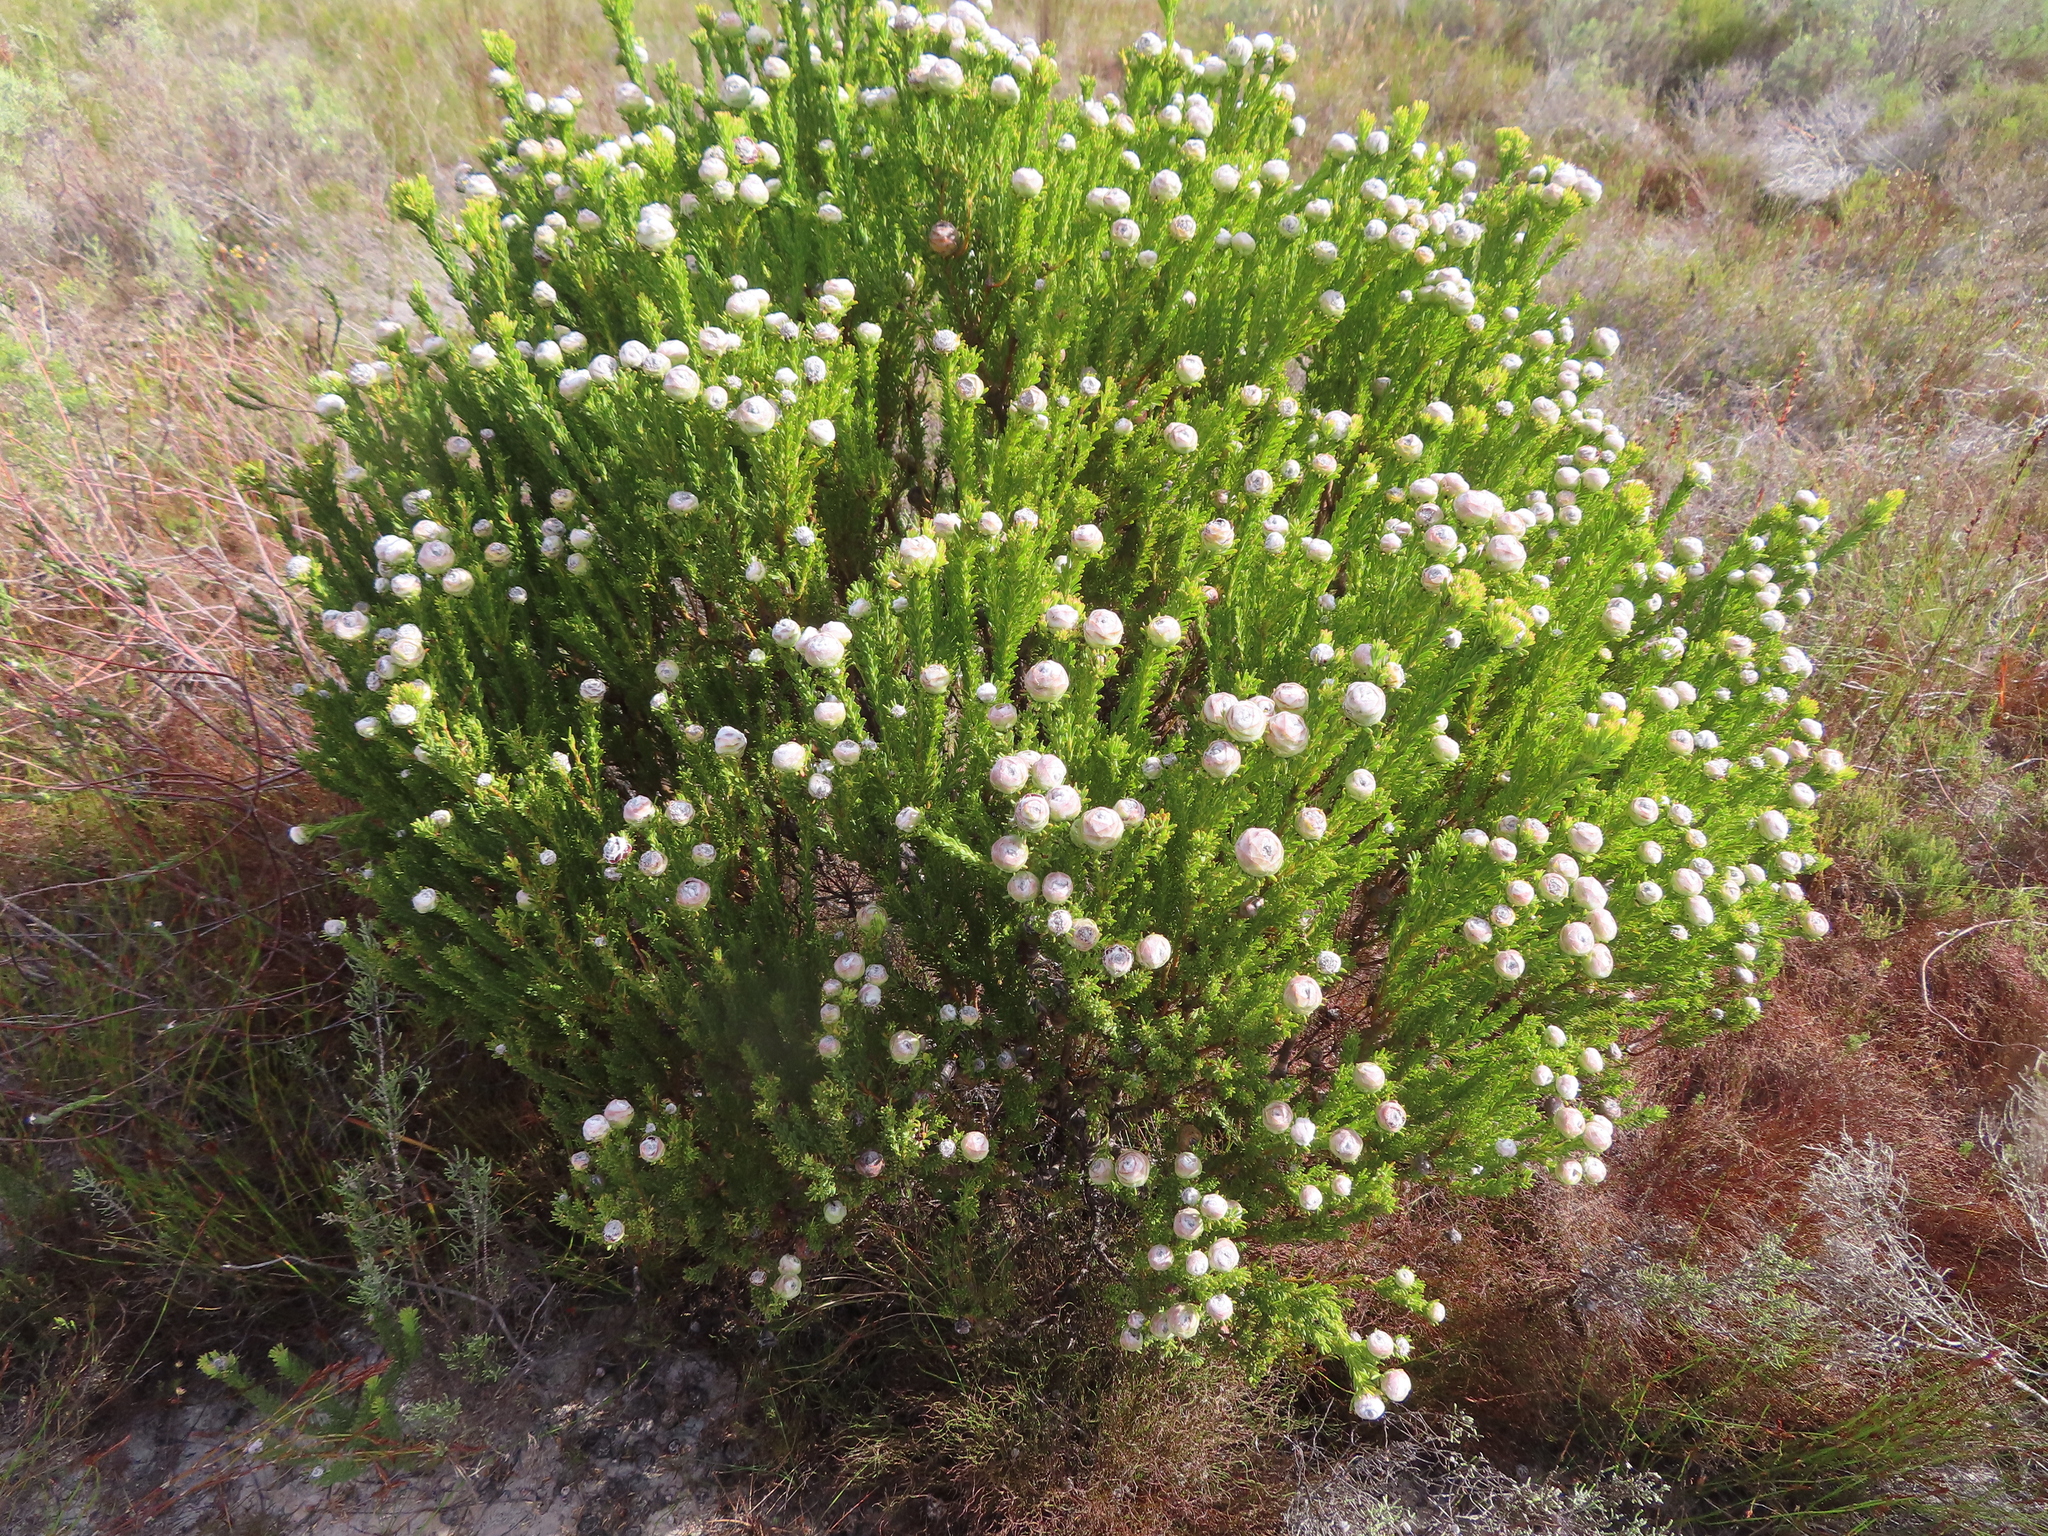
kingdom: Plantae
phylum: Tracheophyta
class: Magnoliopsida
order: Proteales
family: Proteaceae
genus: Leucadendron
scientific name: Leucadendron linifolium
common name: Line-leaf conebush
